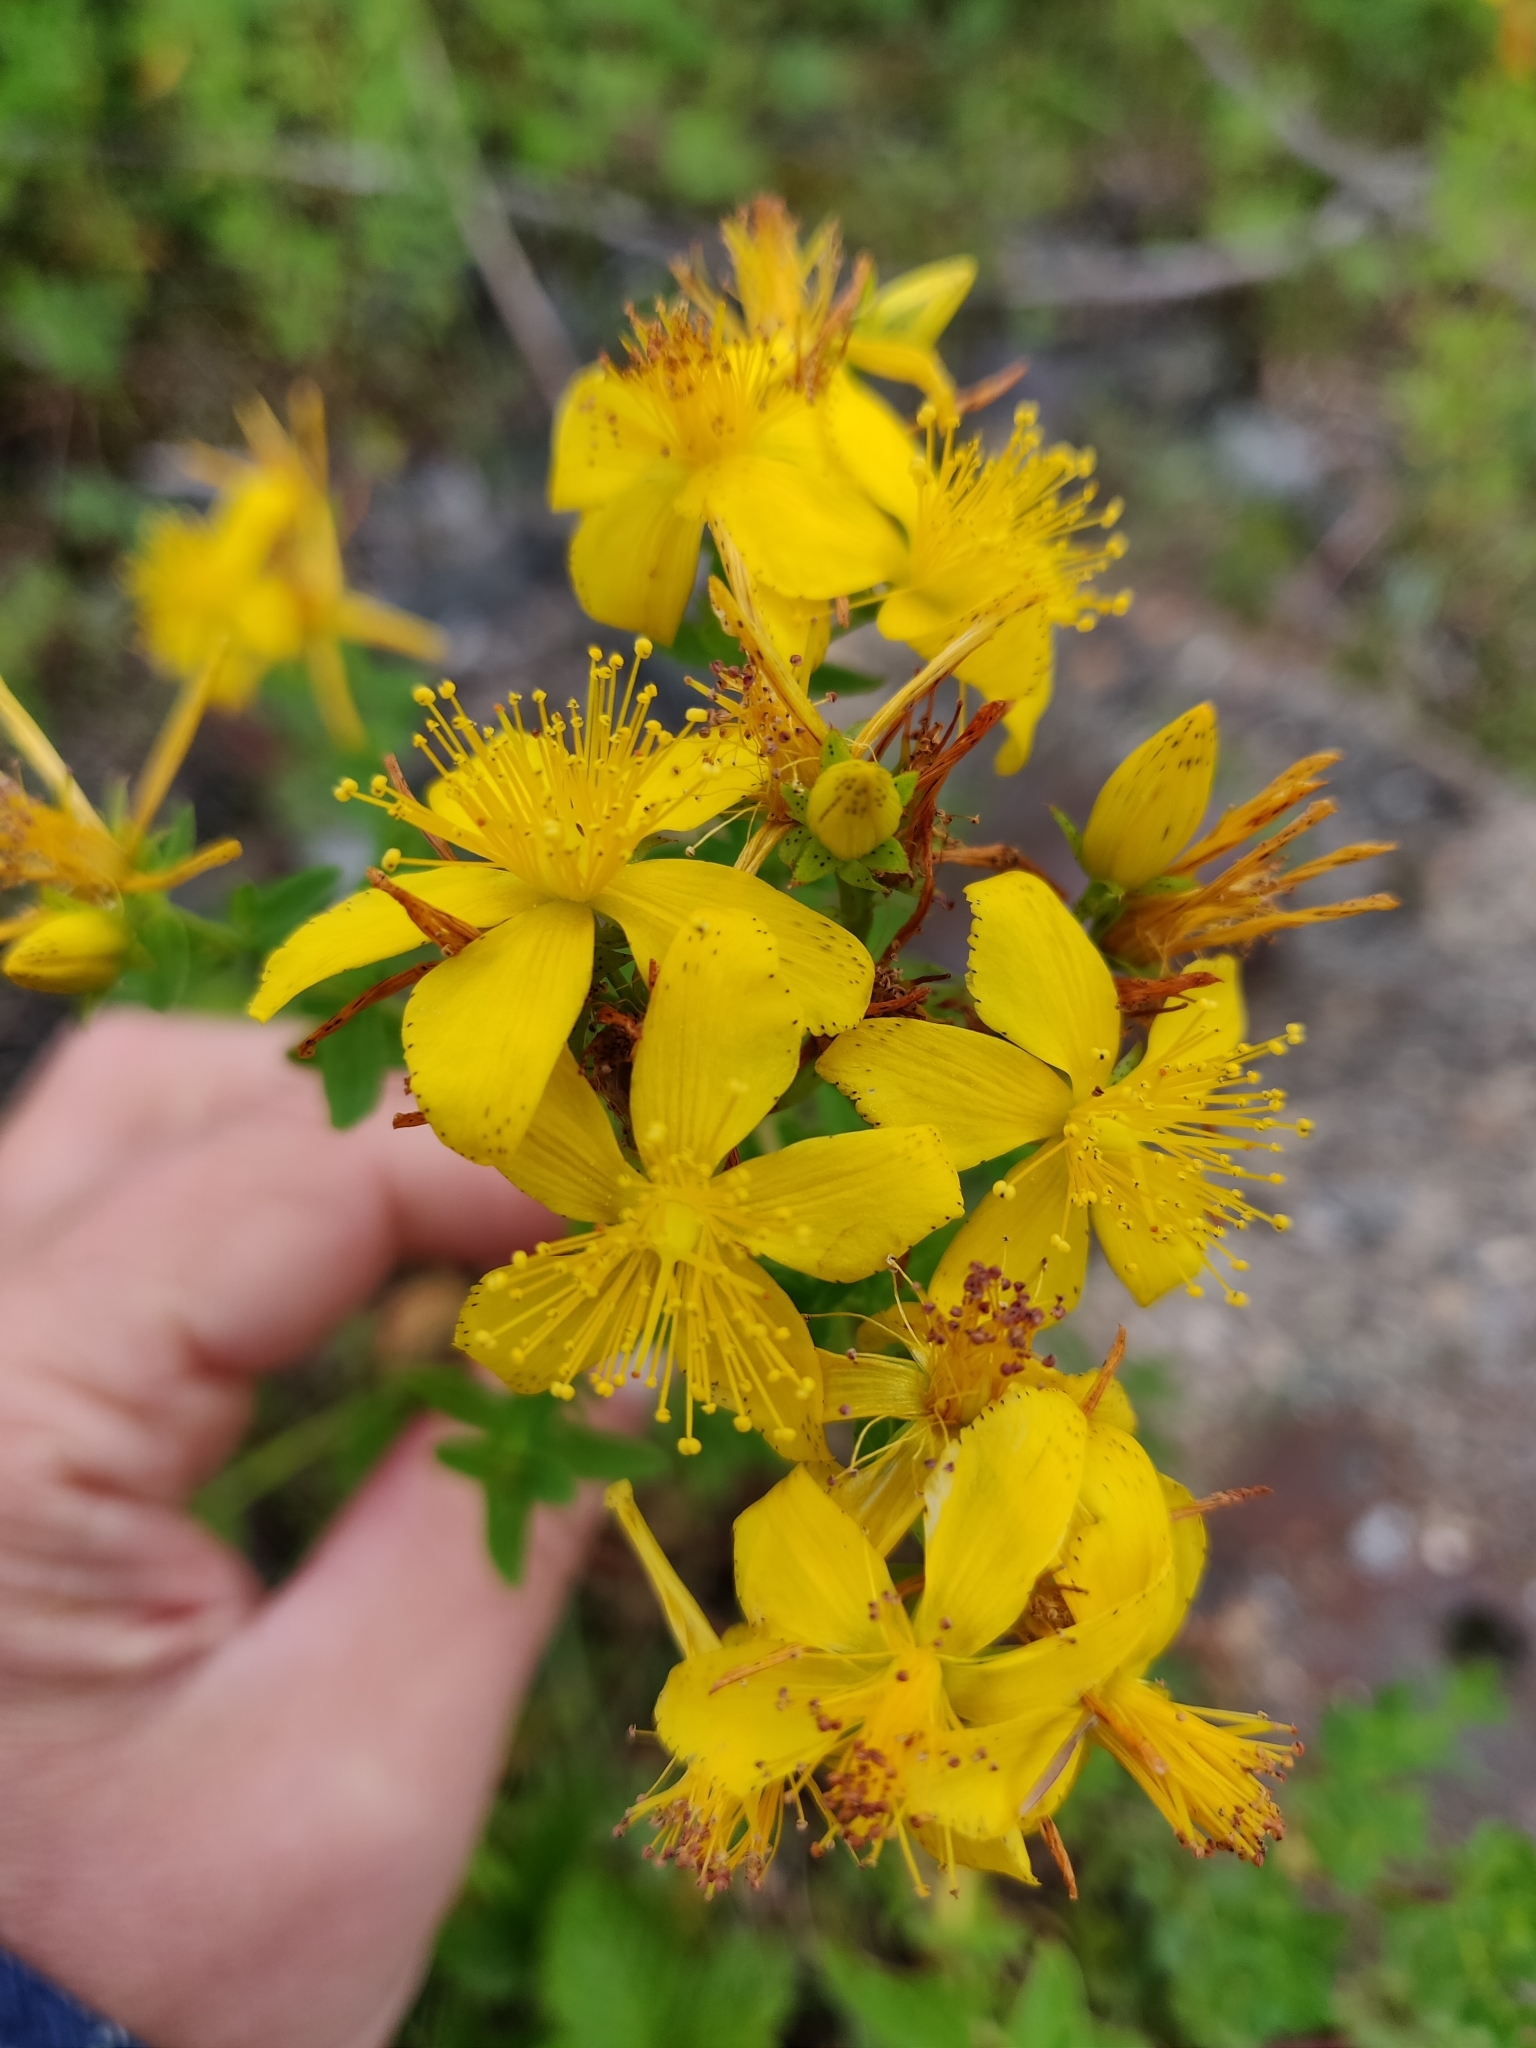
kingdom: Plantae
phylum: Tracheophyta
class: Magnoliopsida
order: Malpighiales
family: Hypericaceae
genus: Hypericum
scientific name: Hypericum perforatum
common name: Common st. johnswort
